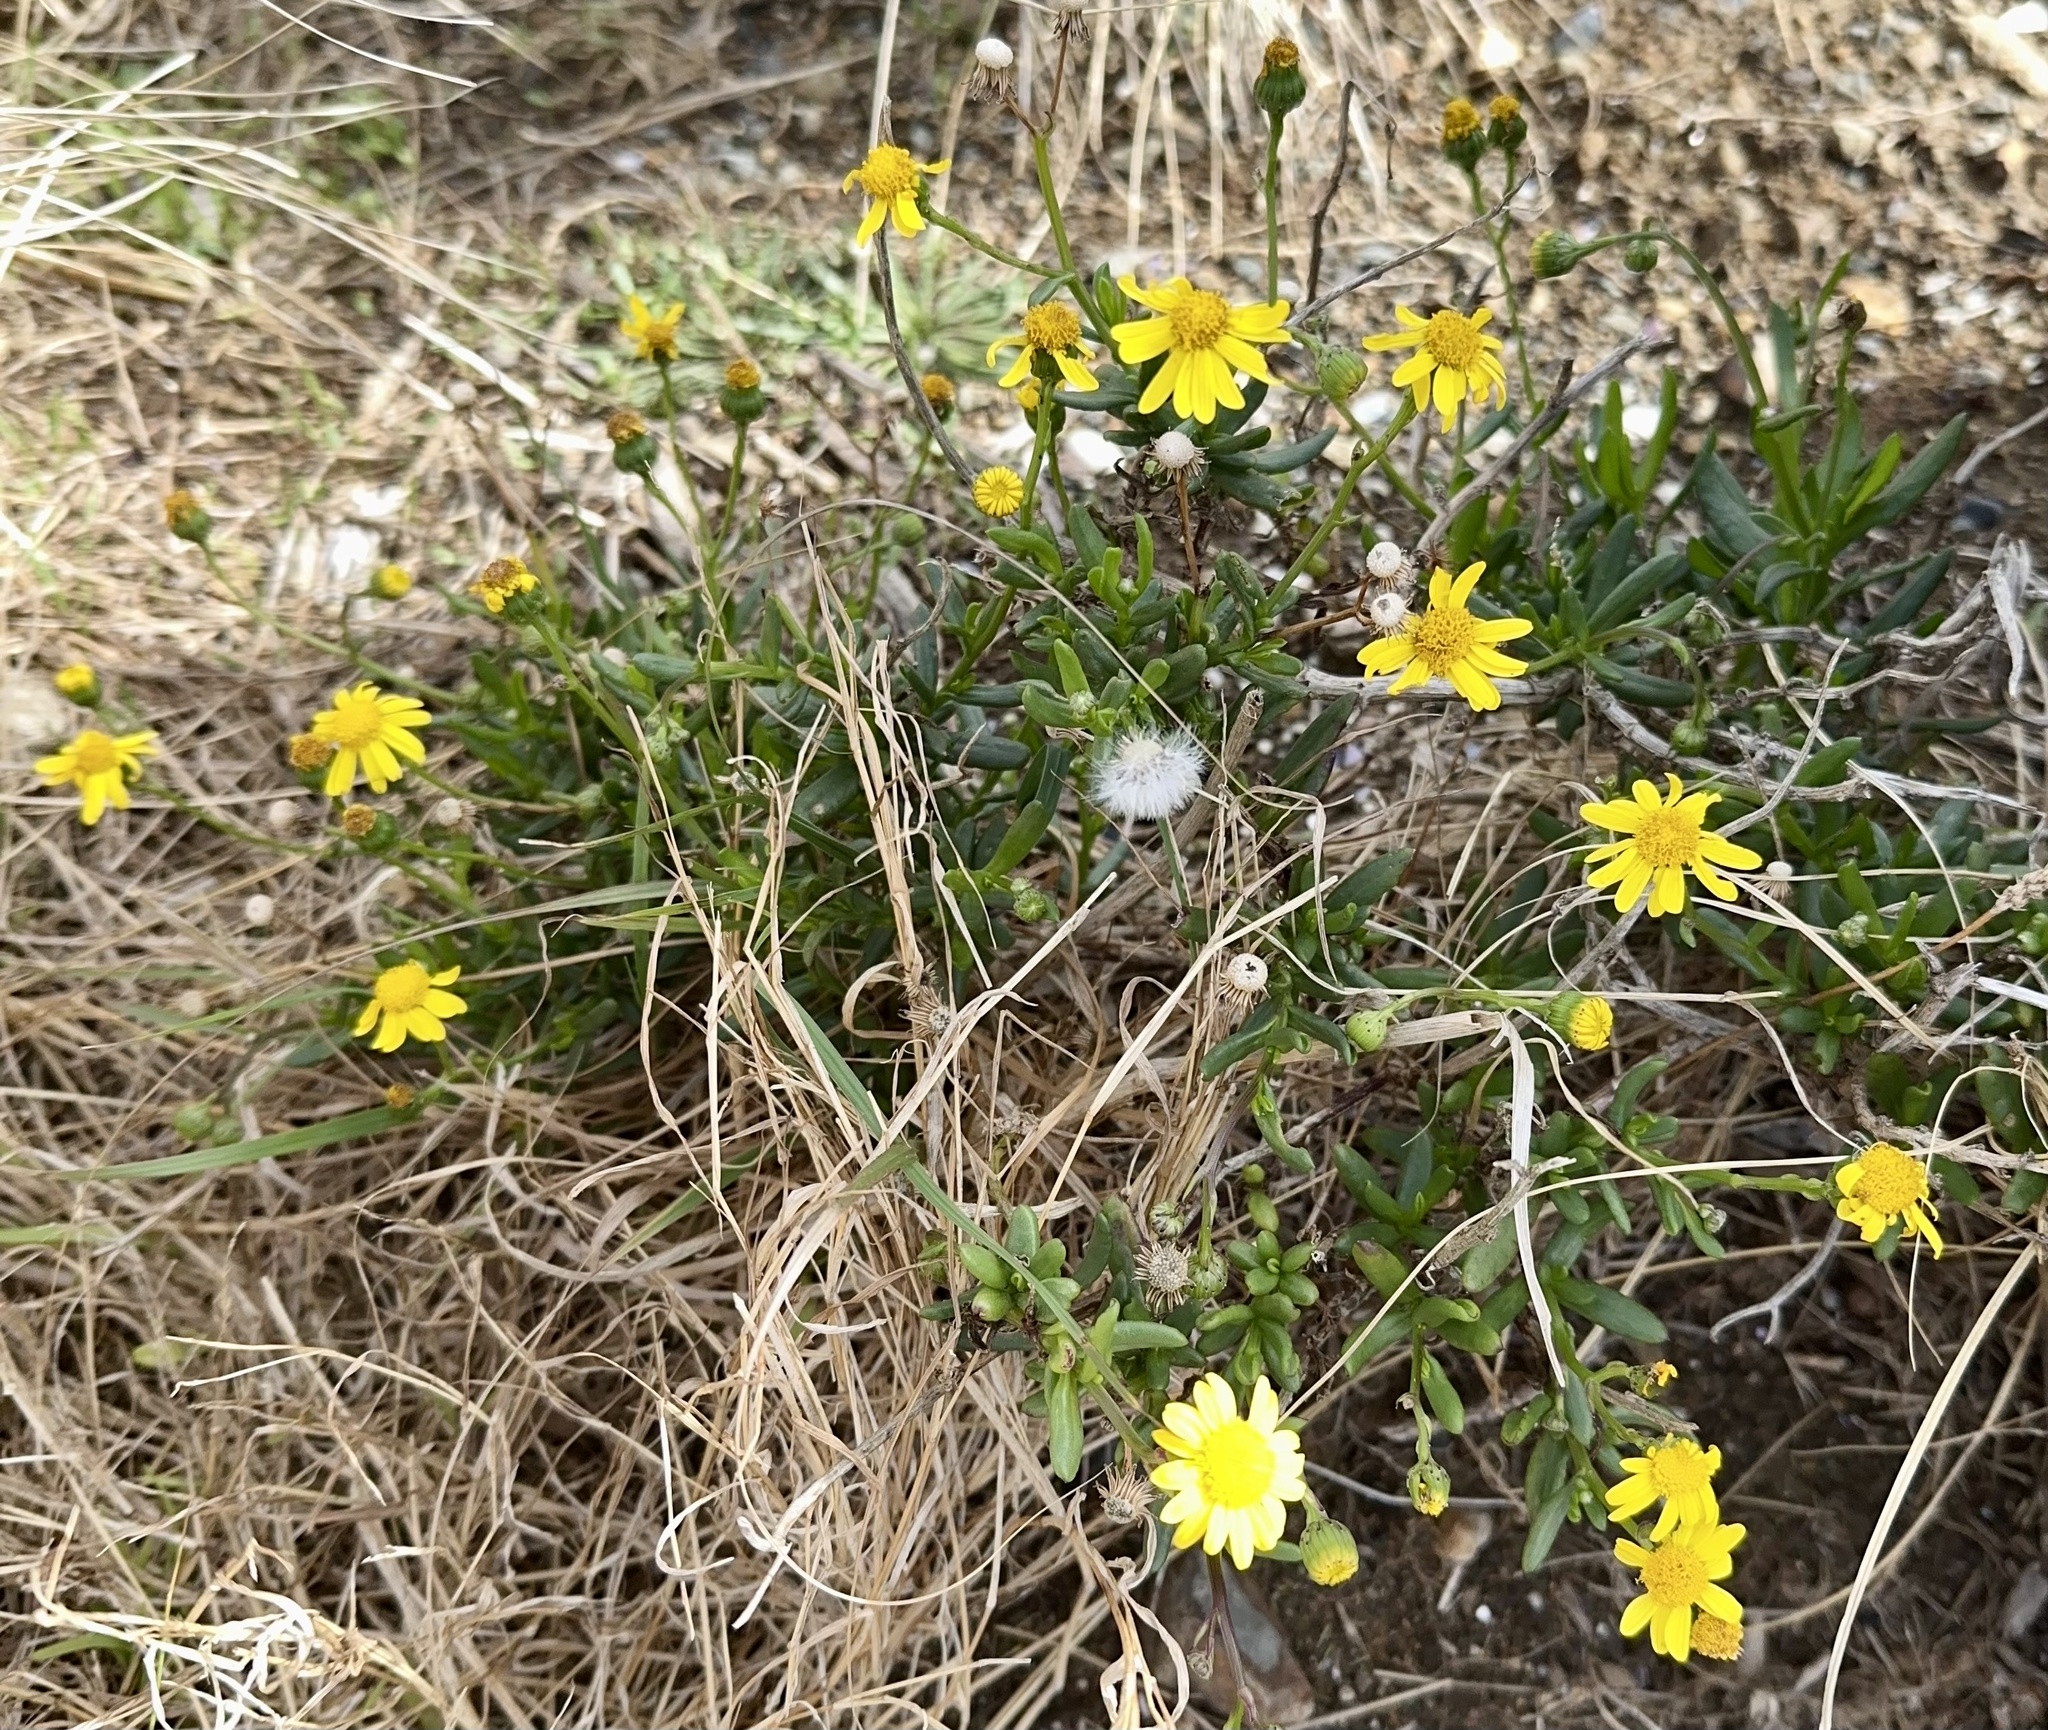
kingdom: Plantae
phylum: Tracheophyta
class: Magnoliopsida
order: Asterales
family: Asteraceae
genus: Senecio
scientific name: Senecio skirrhodon
